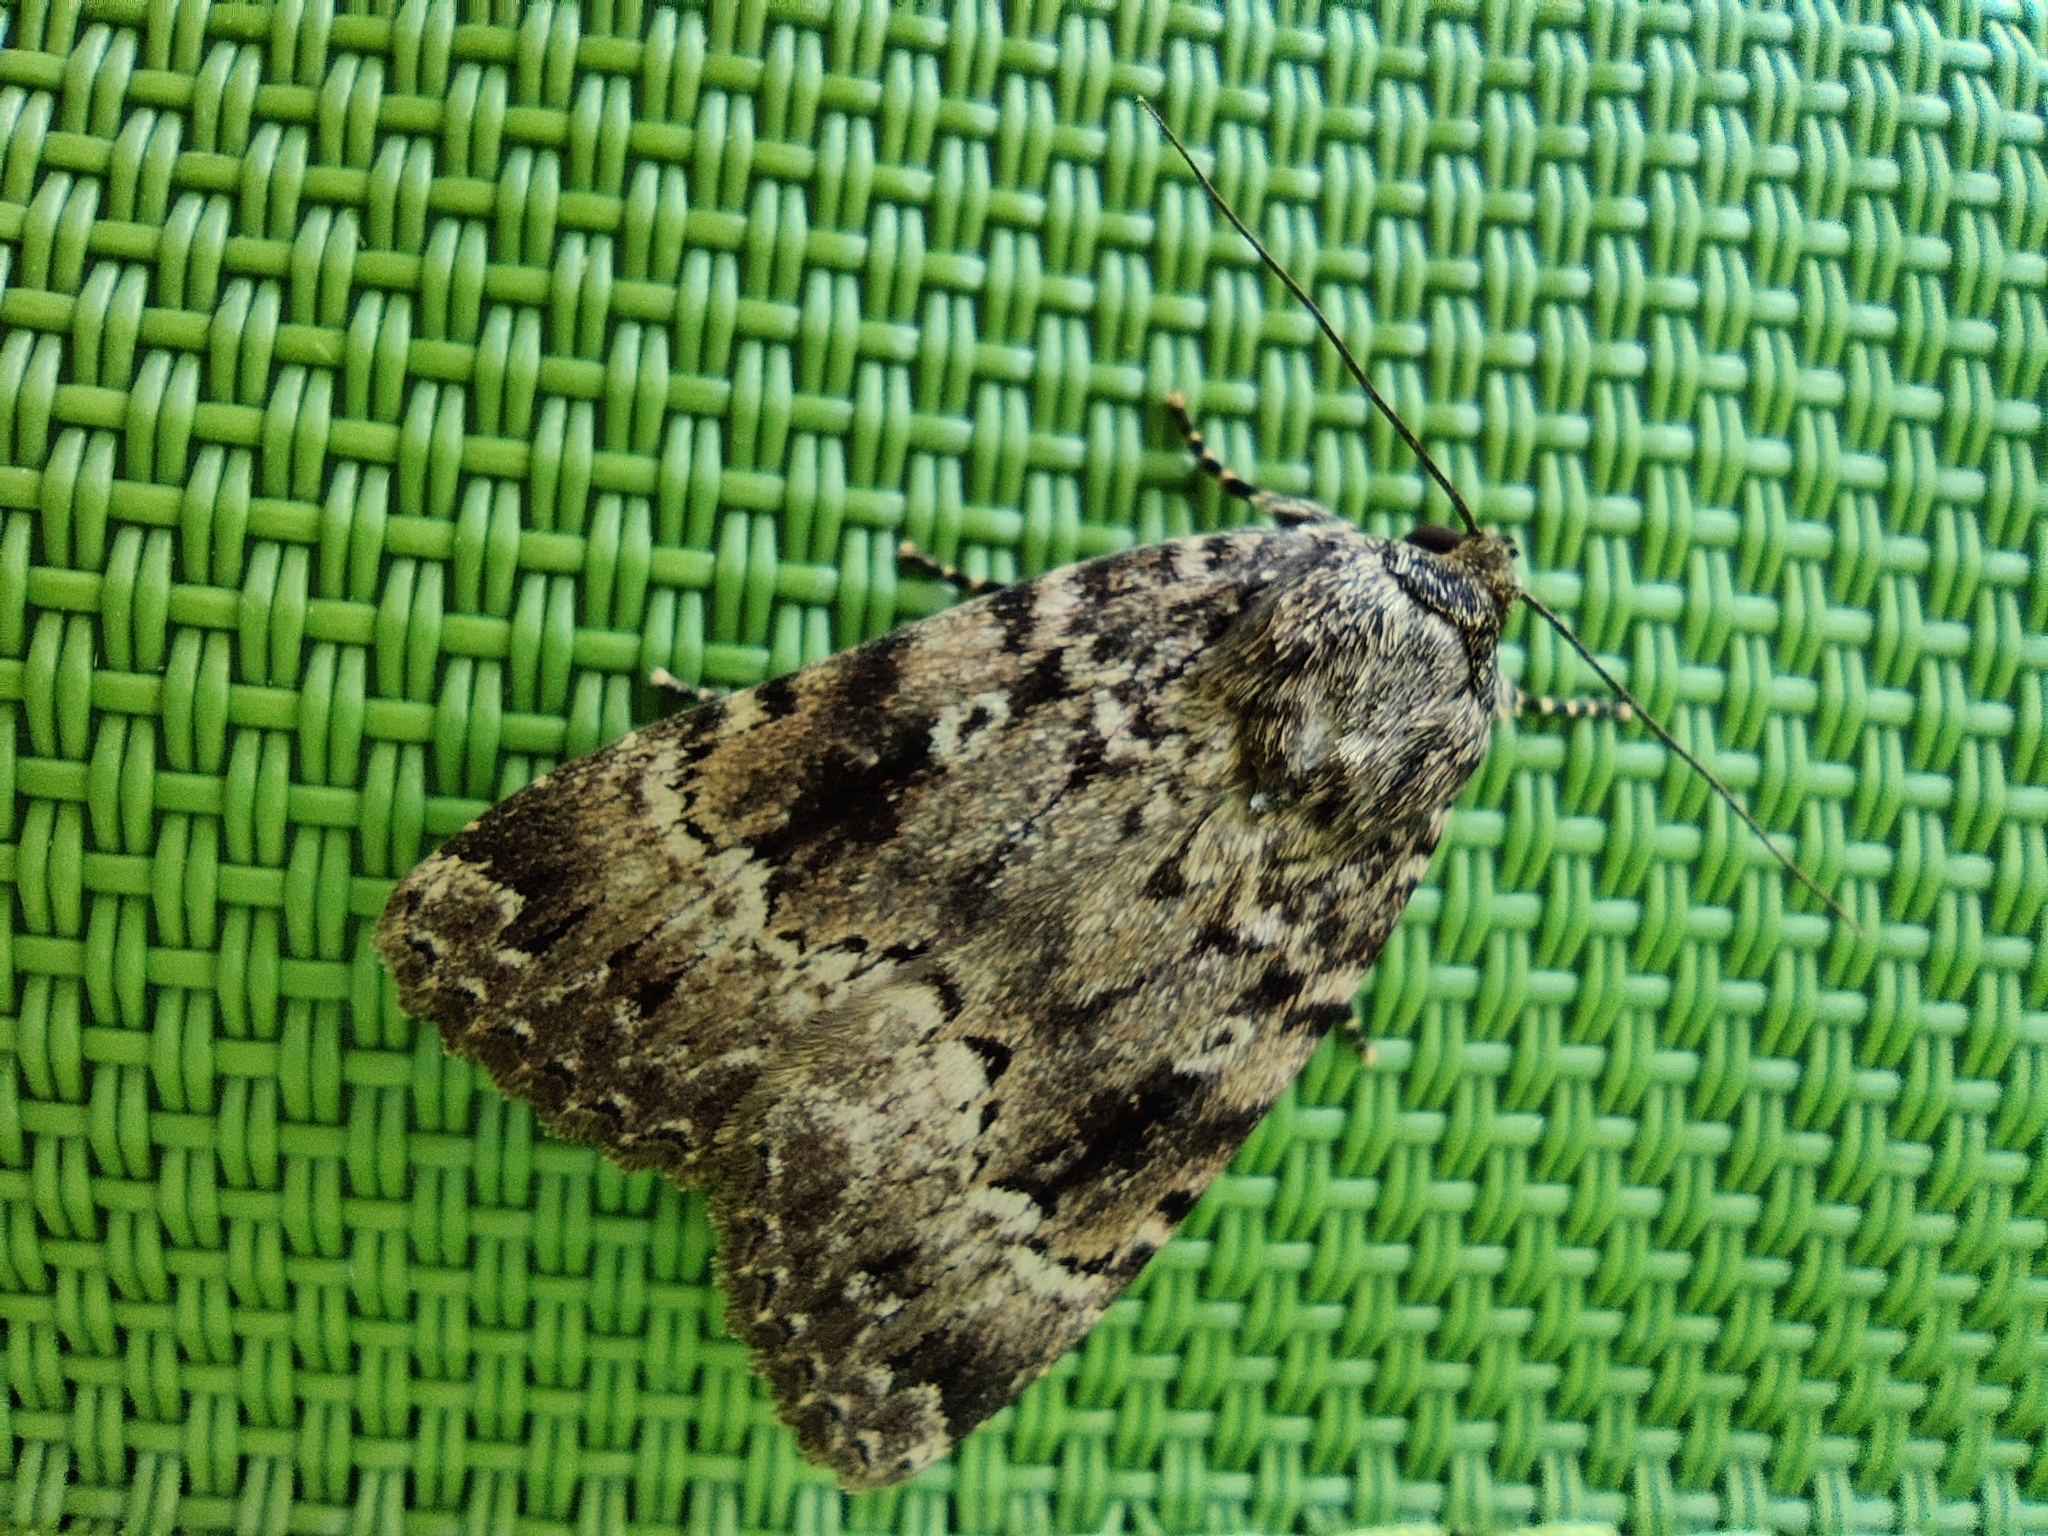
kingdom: Animalia
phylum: Arthropoda
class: Insecta
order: Lepidoptera
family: Noctuidae
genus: Amphipyra
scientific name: Amphipyra berbera
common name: Svensson's copper underwing
